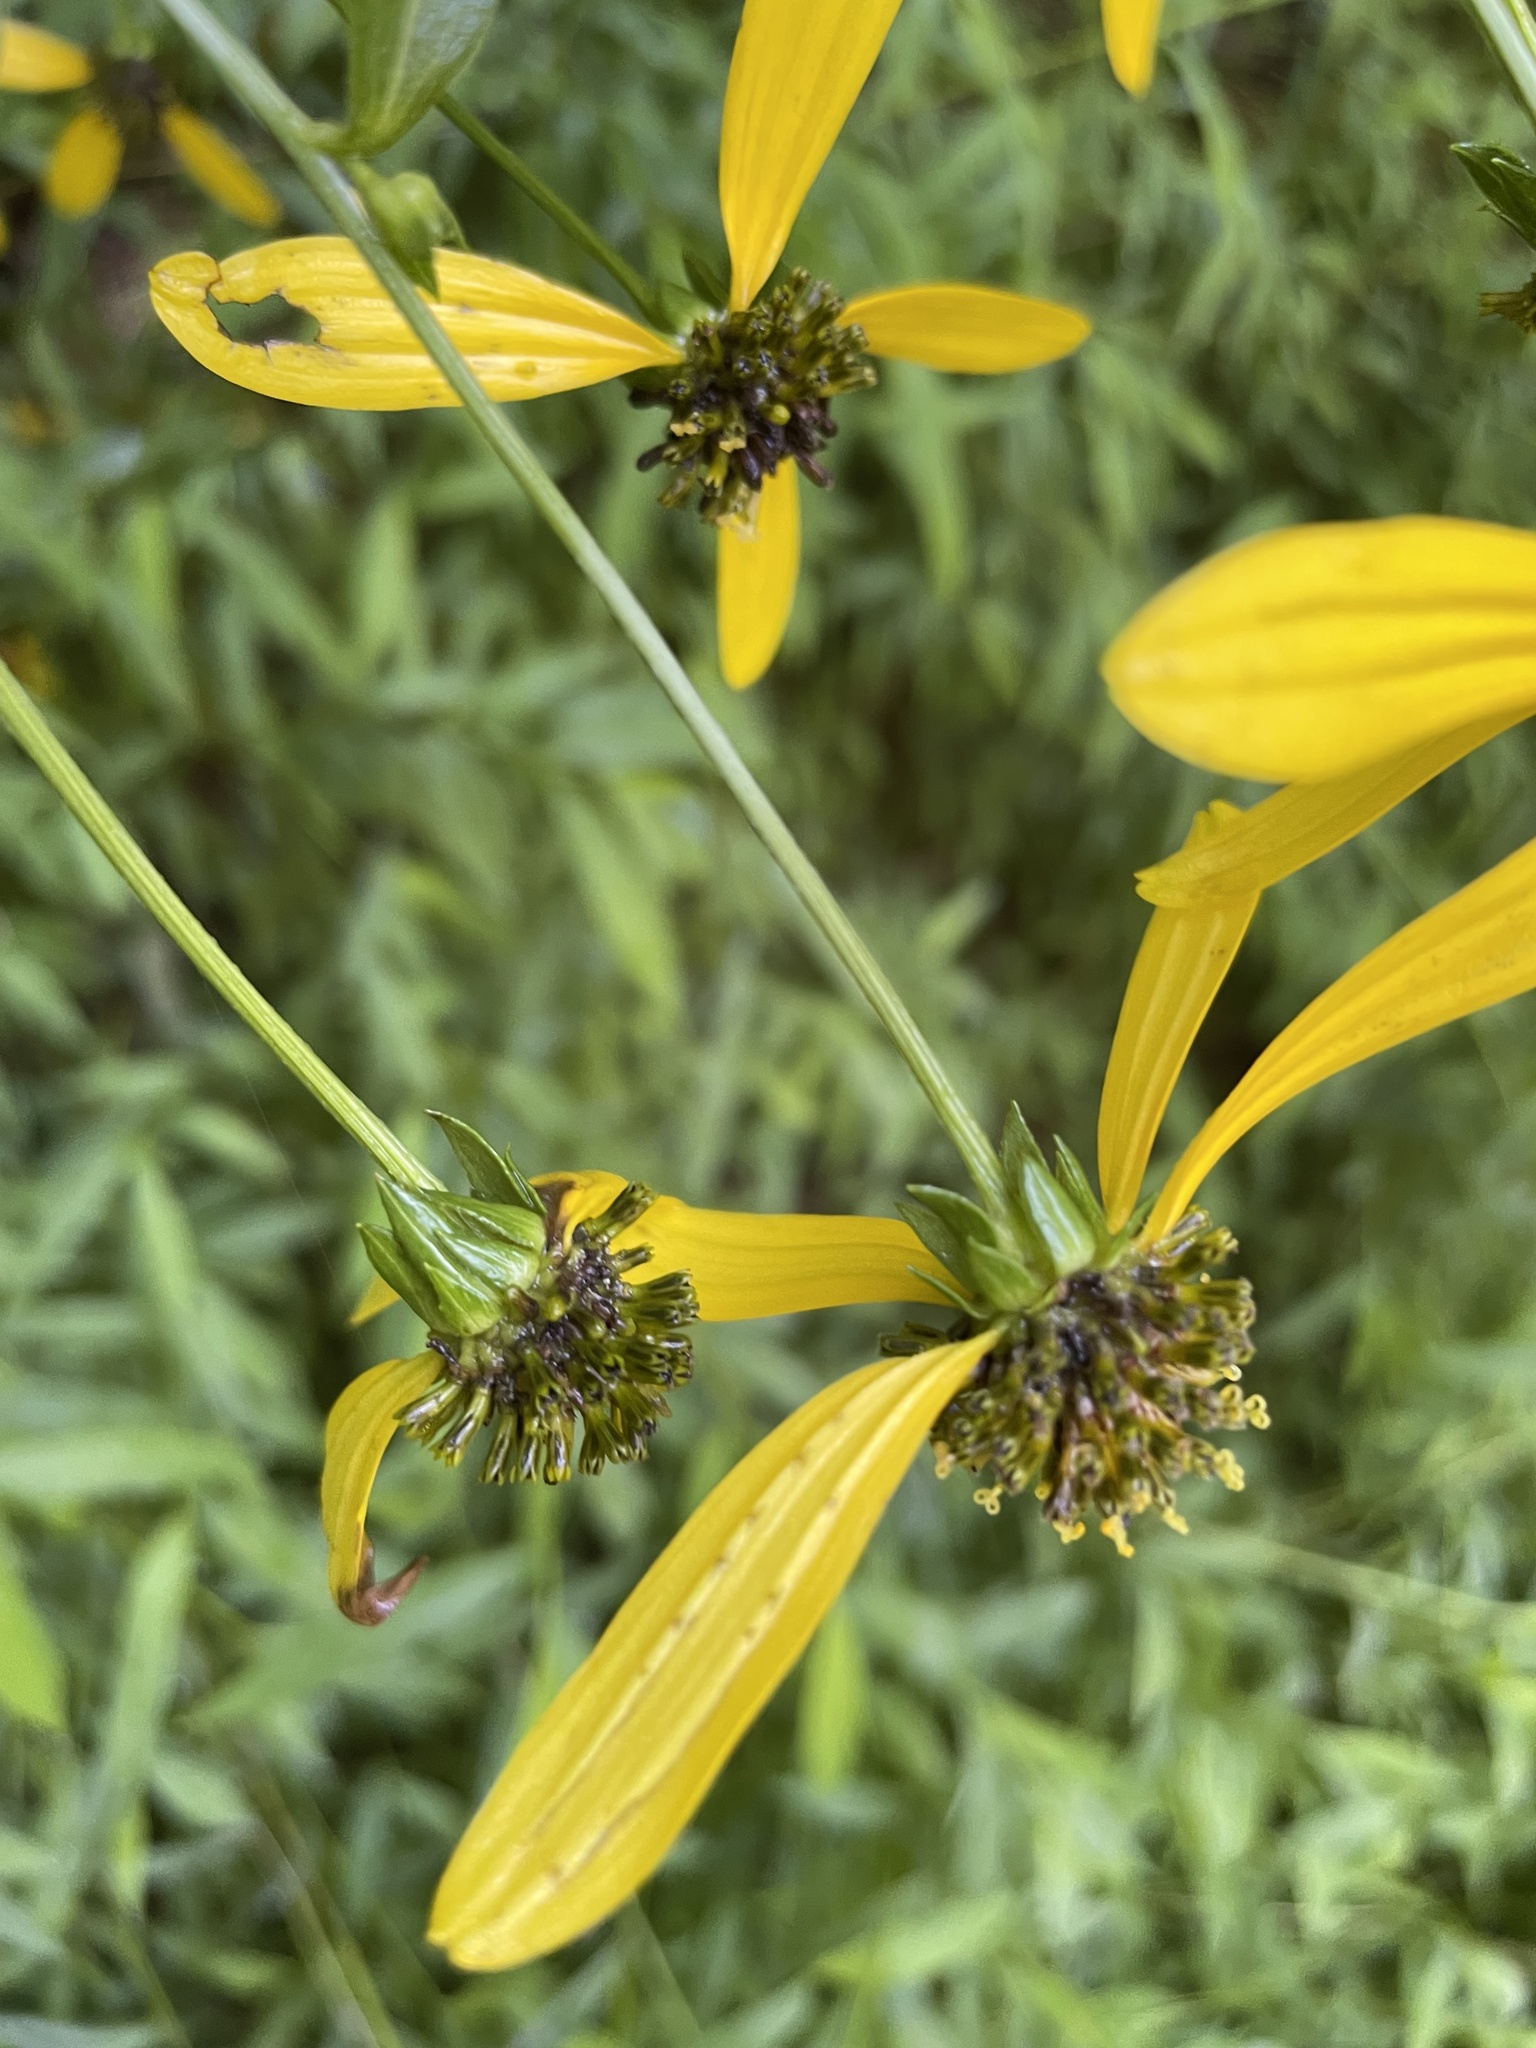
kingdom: Plantae
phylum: Tracheophyta
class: Magnoliopsida
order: Asterales
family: Asteraceae
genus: Rudbeckia
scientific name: Rudbeckia laciniata
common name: Coneflower
